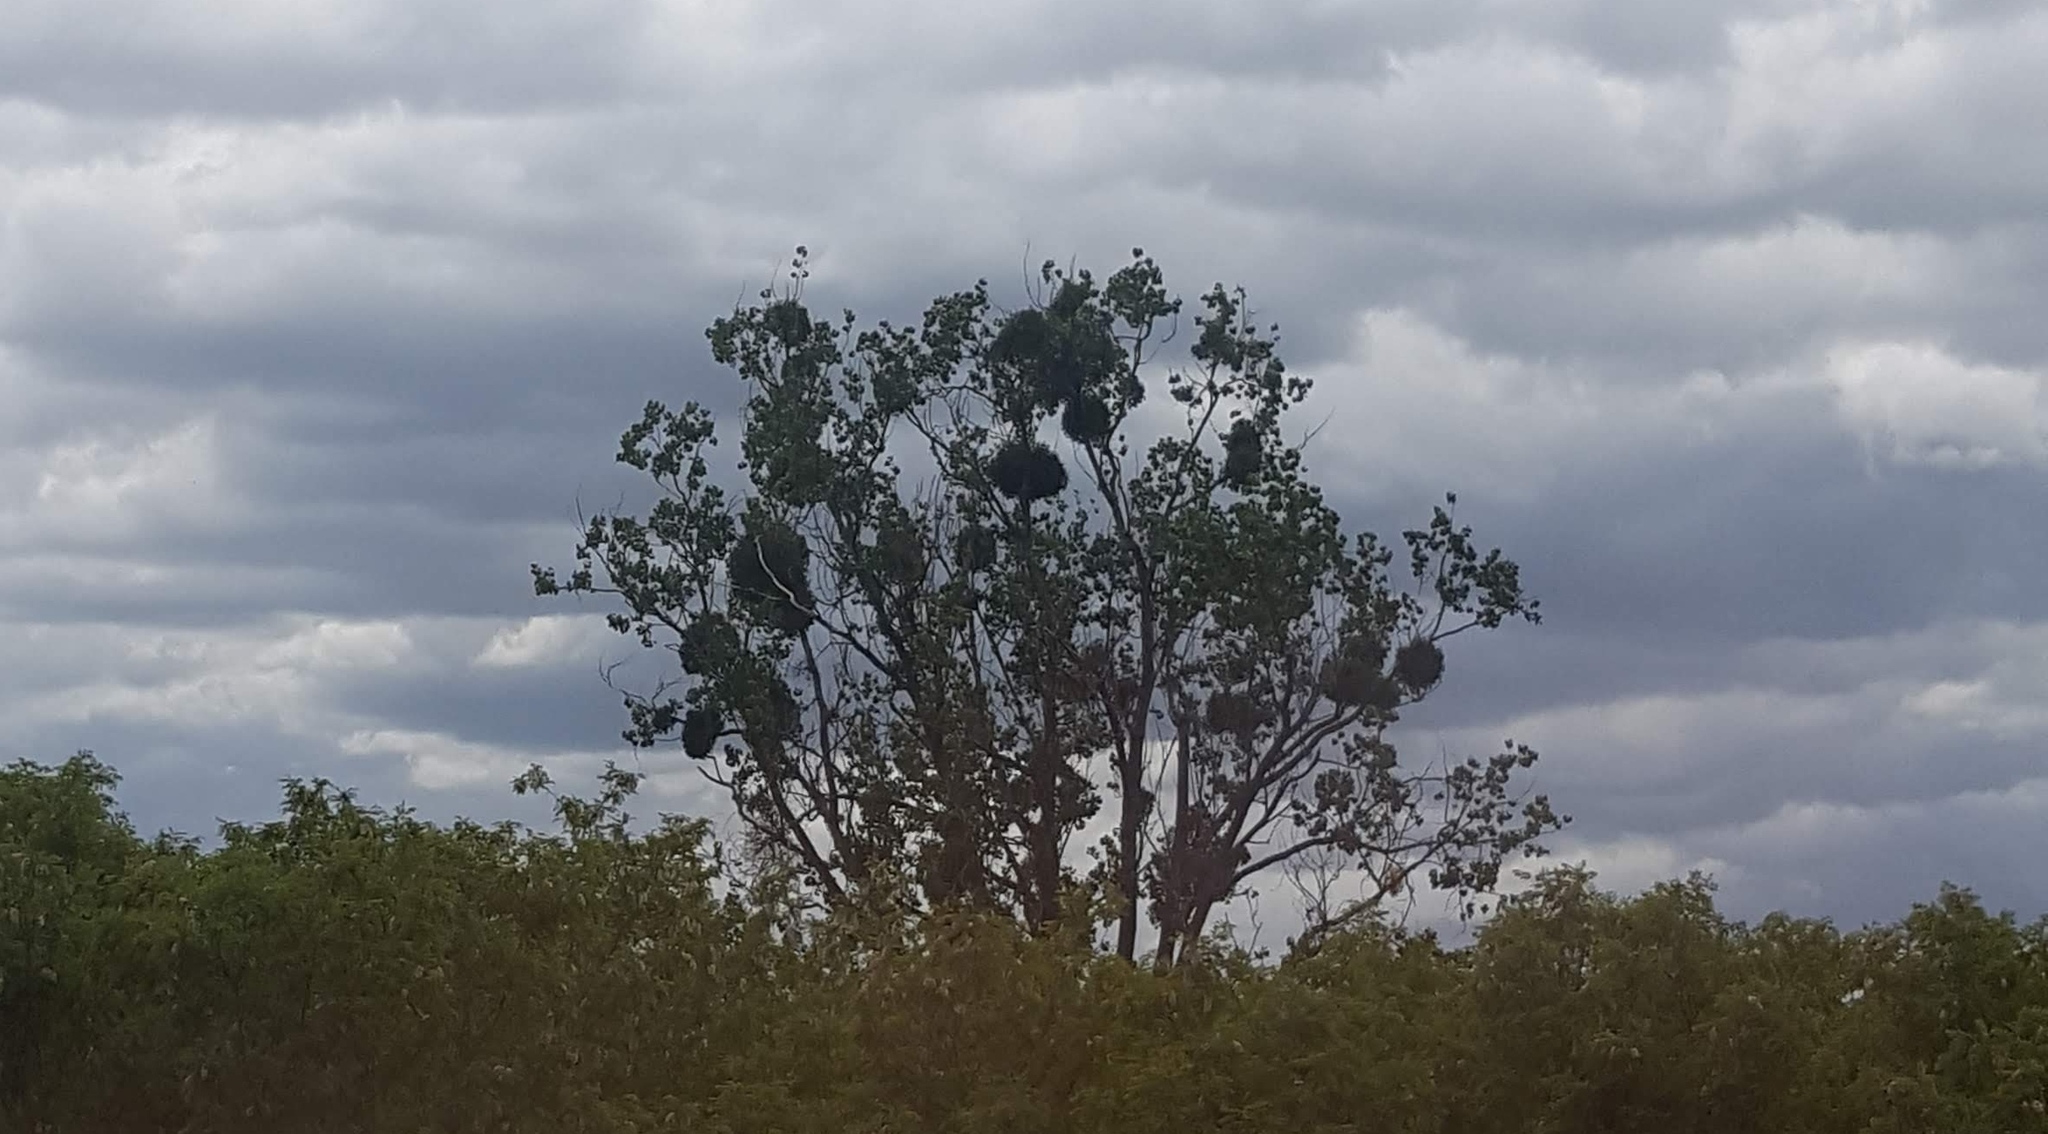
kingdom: Plantae
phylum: Tracheophyta
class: Magnoliopsida
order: Santalales
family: Viscaceae
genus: Viscum
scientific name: Viscum album
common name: Mistletoe
